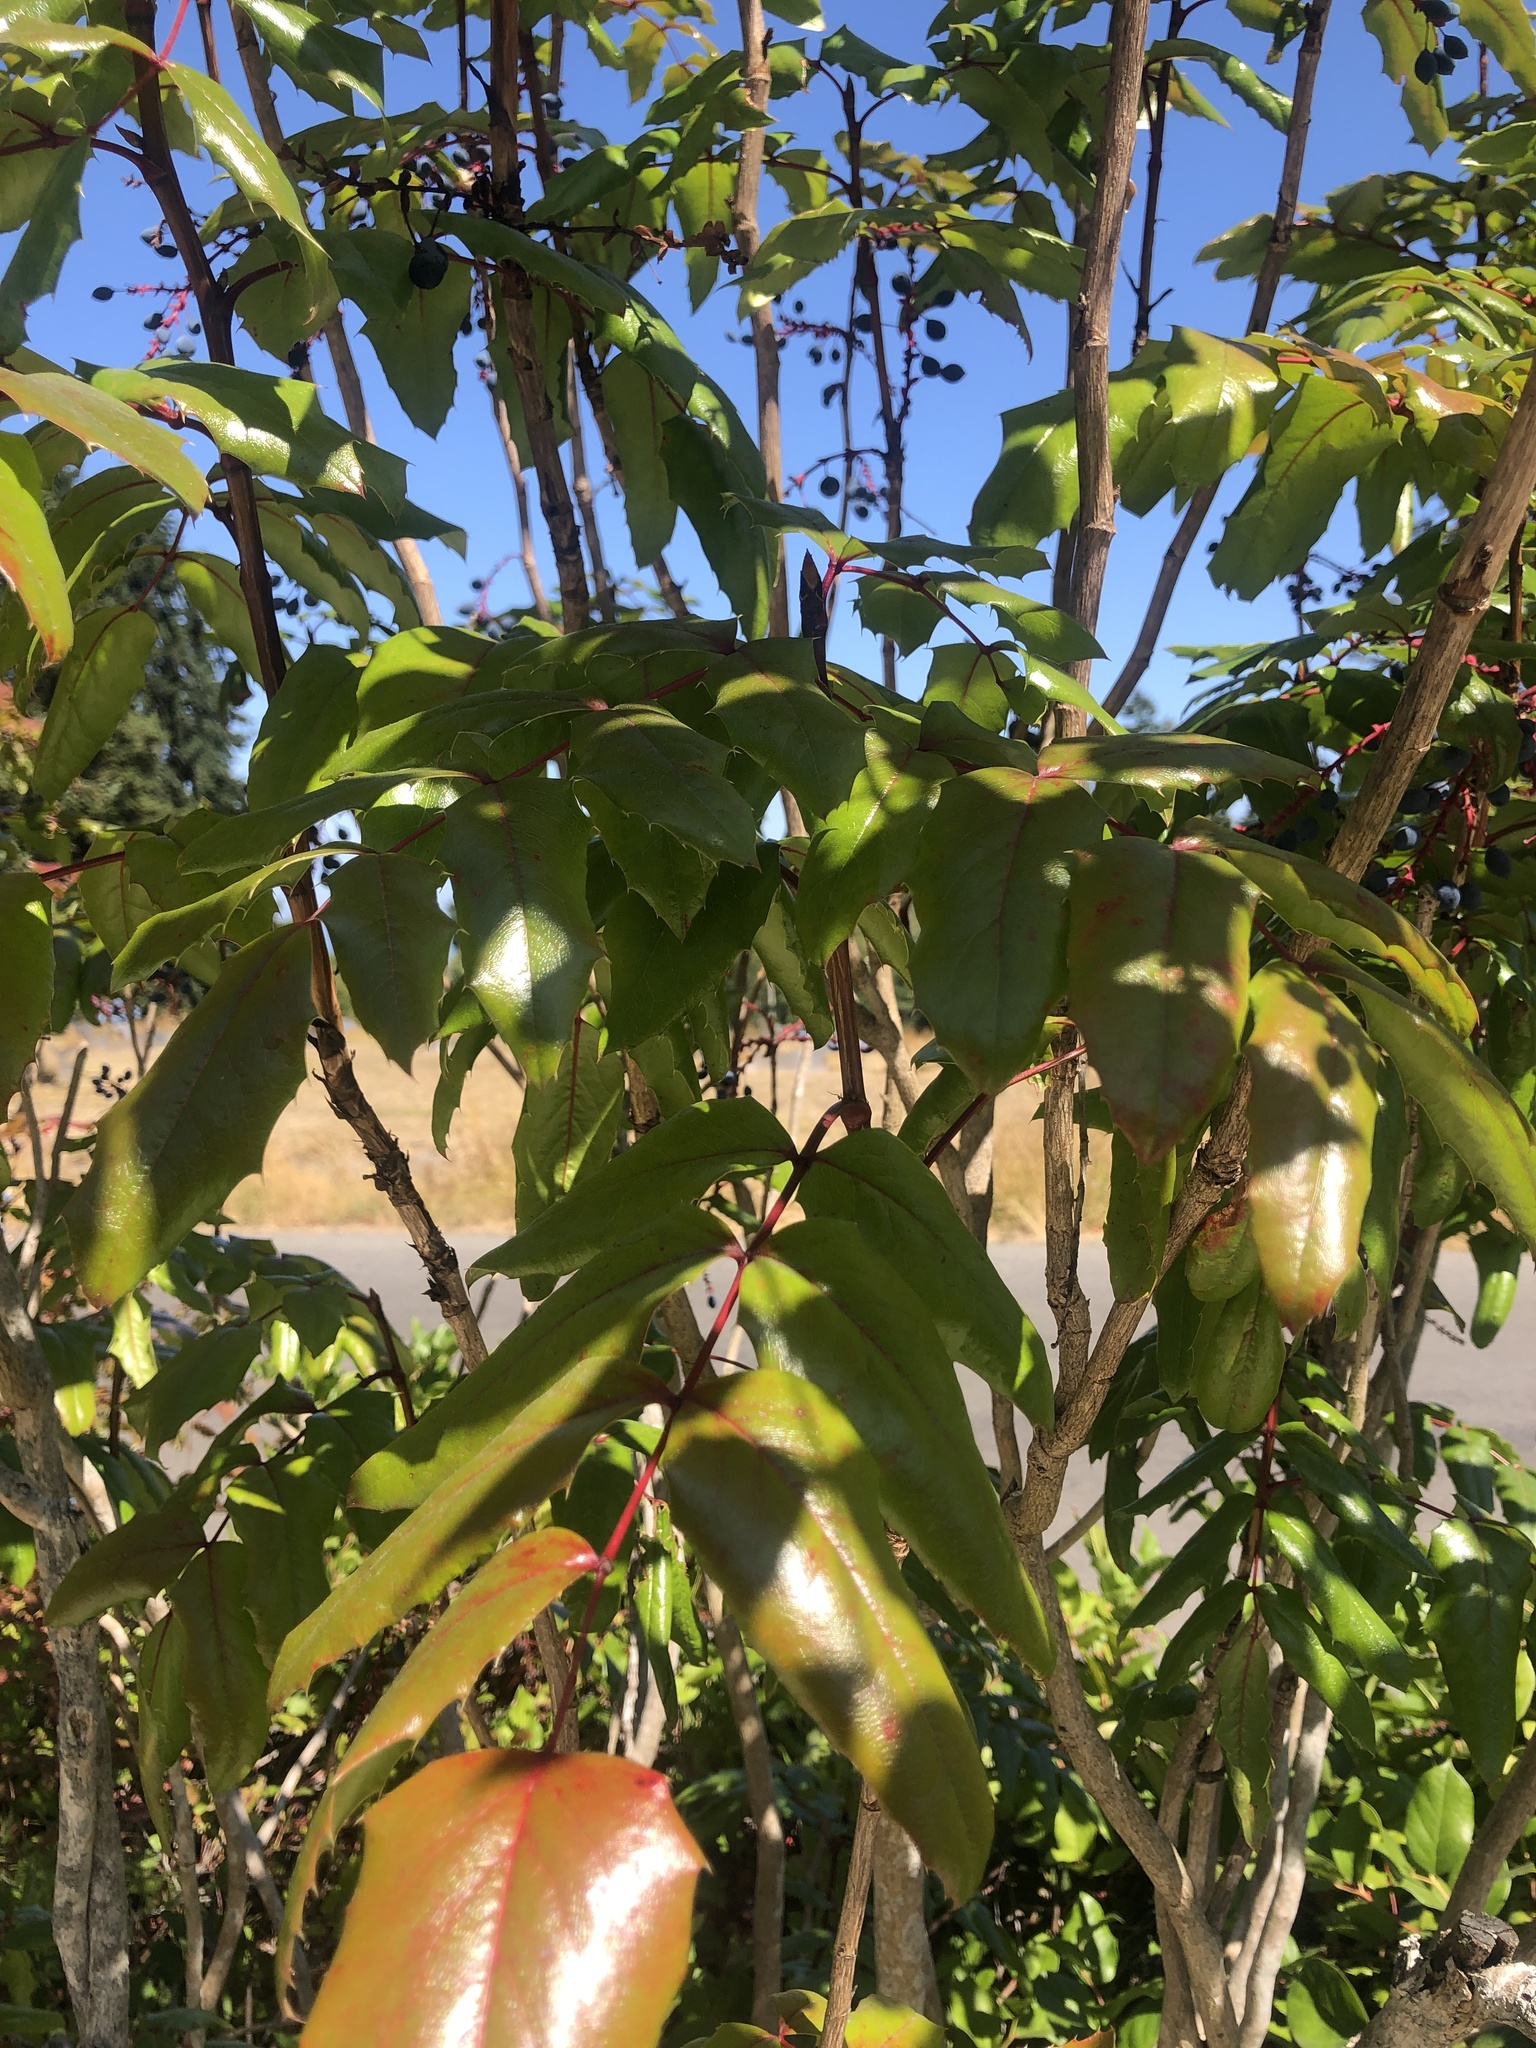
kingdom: Plantae
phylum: Tracheophyta
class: Magnoliopsida
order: Ranunculales
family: Berberidaceae
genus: Mahonia
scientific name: Mahonia aquifolium
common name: Oregon-grape
